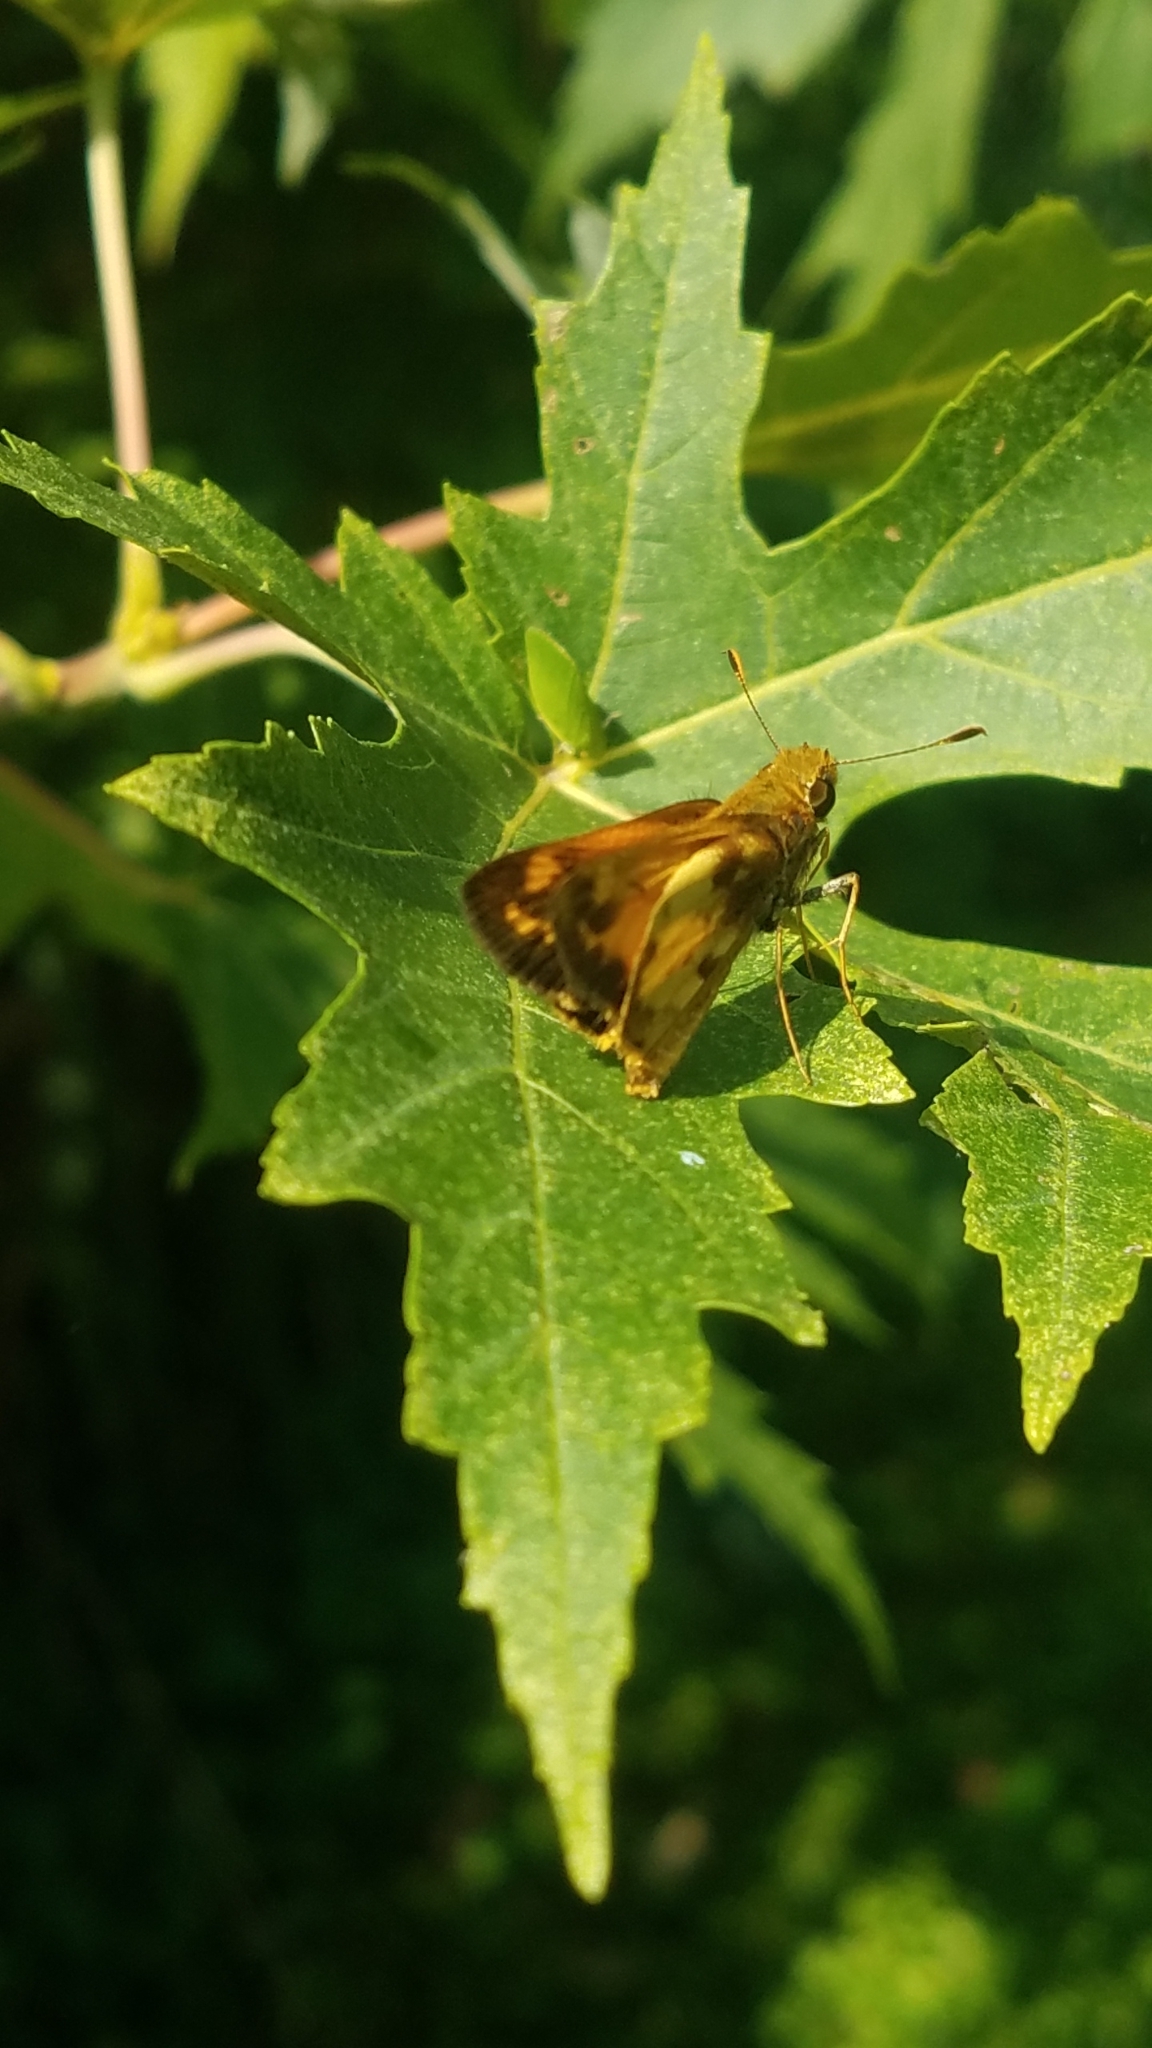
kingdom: Animalia
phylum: Arthropoda
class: Insecta
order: Lepidoptera
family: Hesperiidae
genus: Lon
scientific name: Lon zabulon
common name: Zabulon skipper
